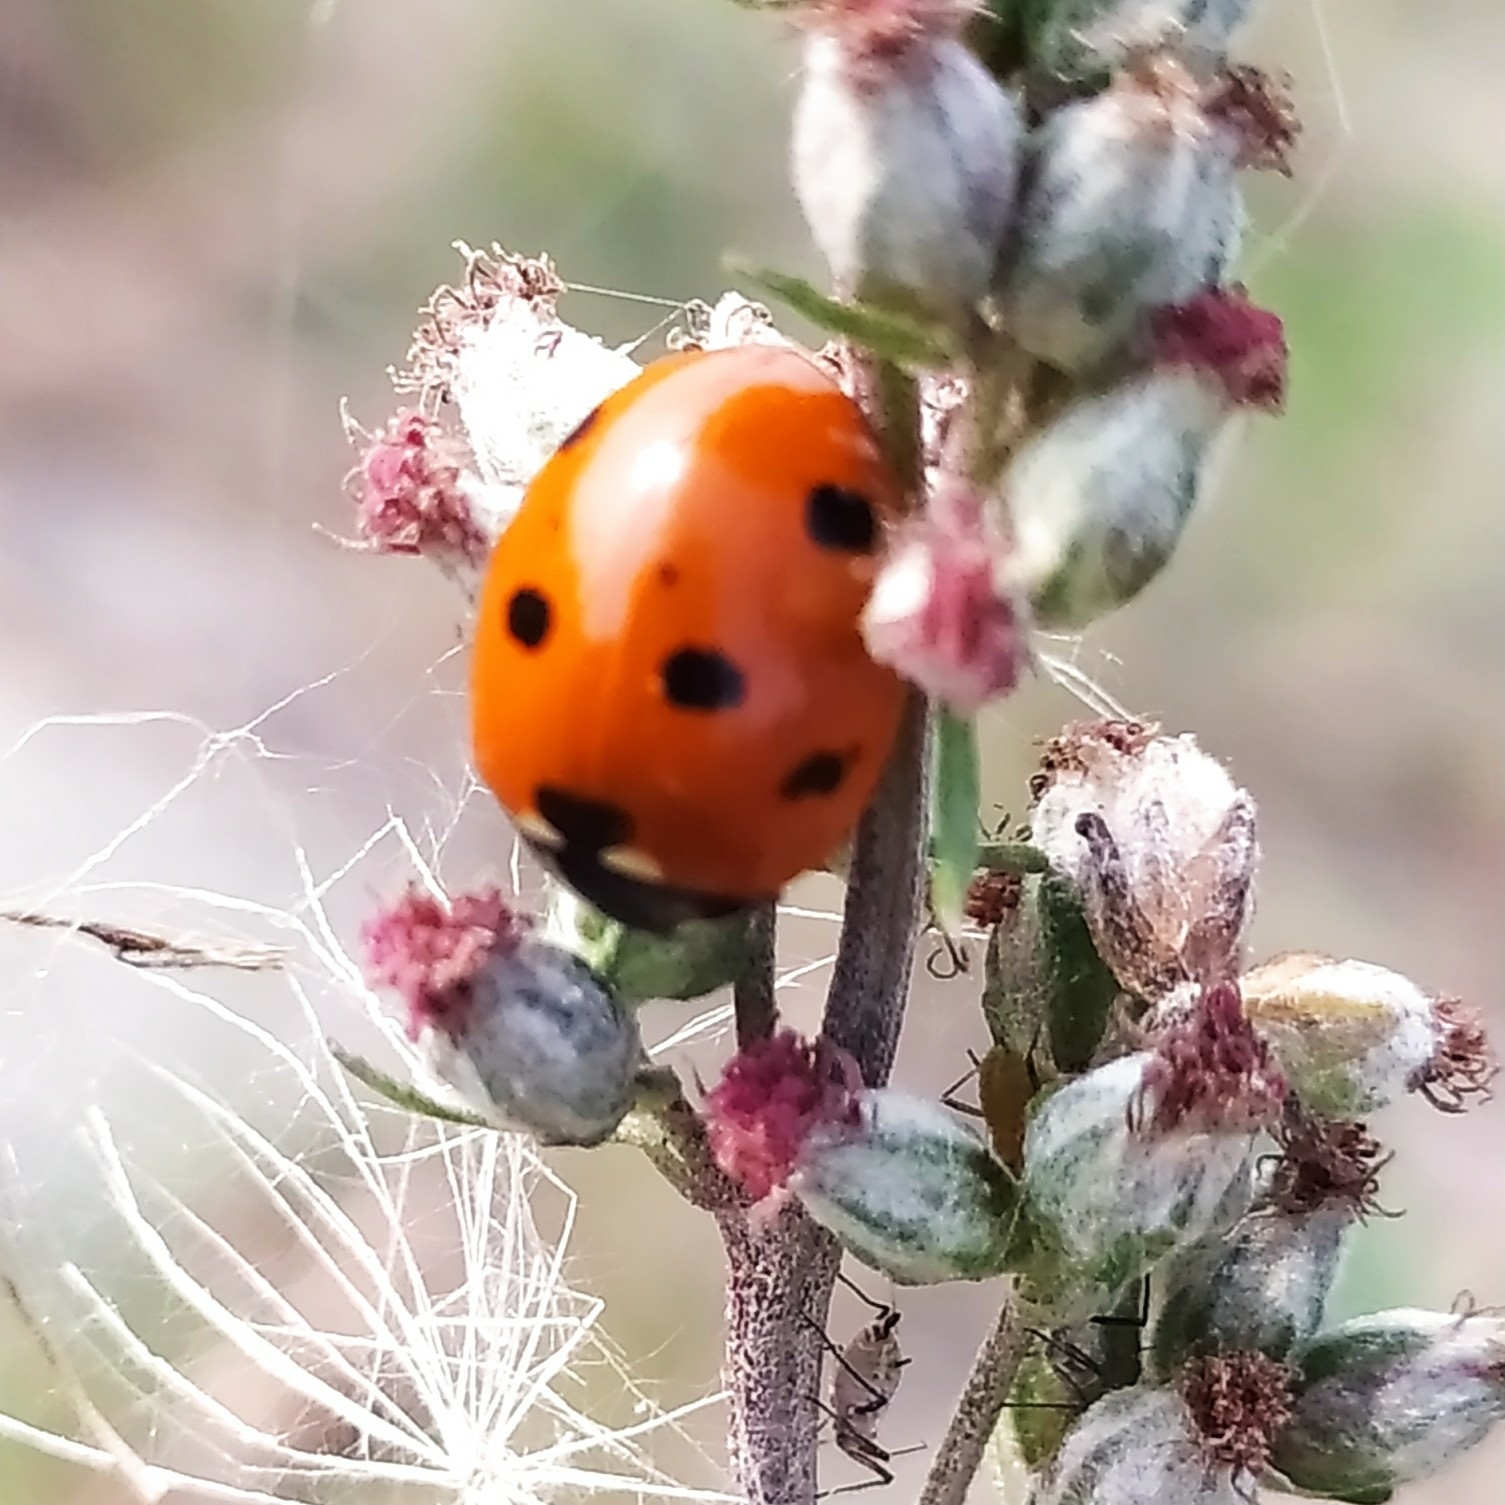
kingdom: Animalia
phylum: Arthropoda
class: Insecta
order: Coleoptera
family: Coccinellidae
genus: Coccinella
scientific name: Coccinella septempunctata
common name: Sevenspotted lady beetle
